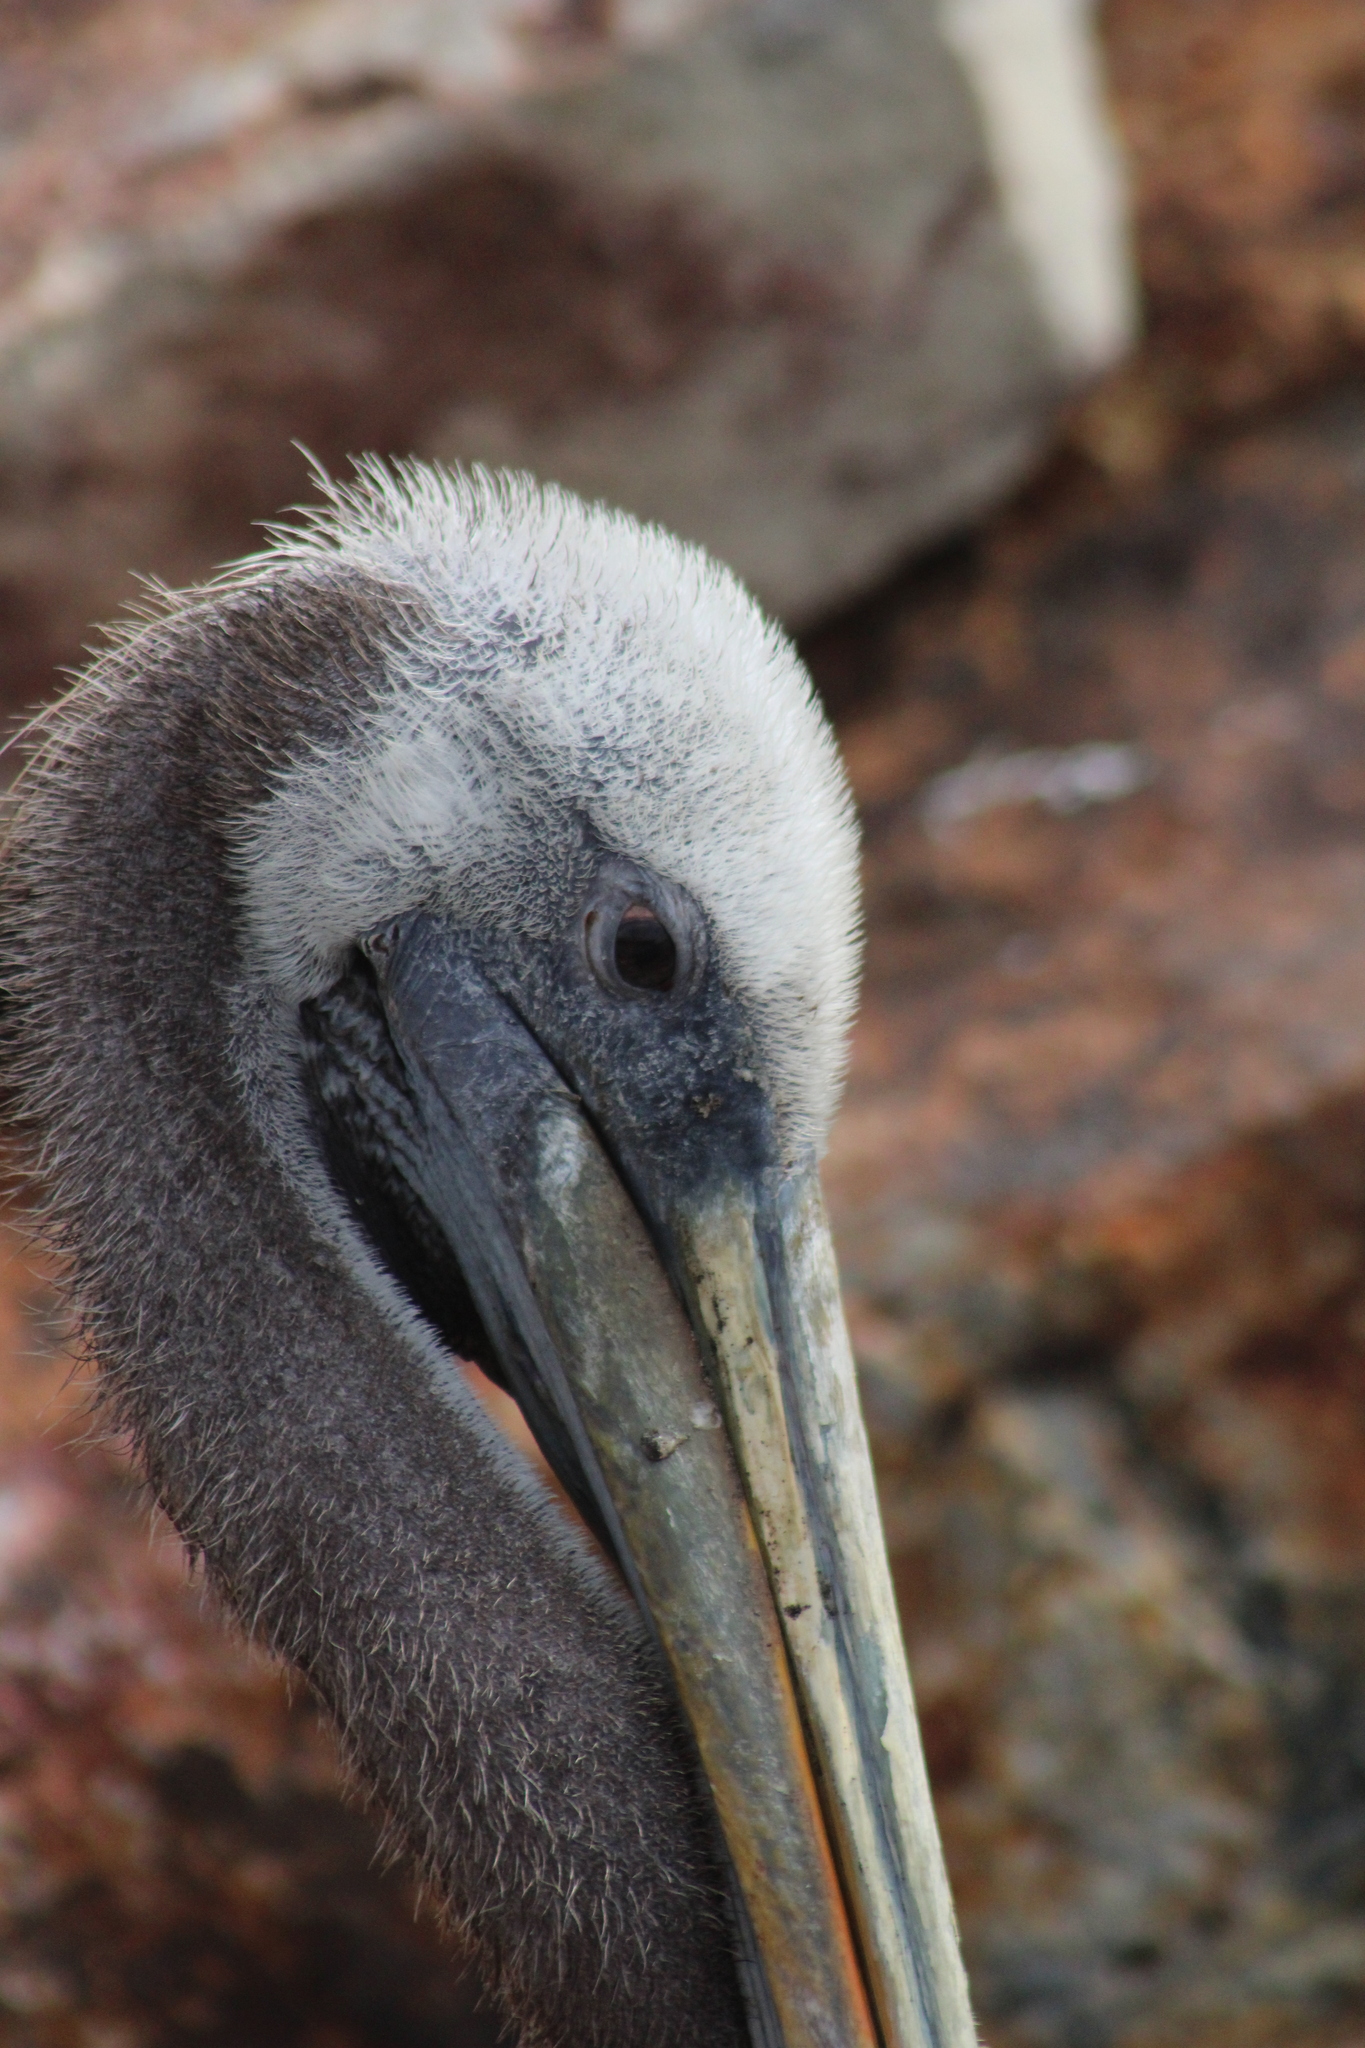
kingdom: Animalia
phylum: Chordata
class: Aves
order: Pelecaniformes
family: Pelecanidae
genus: Pelecanus
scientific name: Pelecanus thagus
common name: Peruvian pelican
